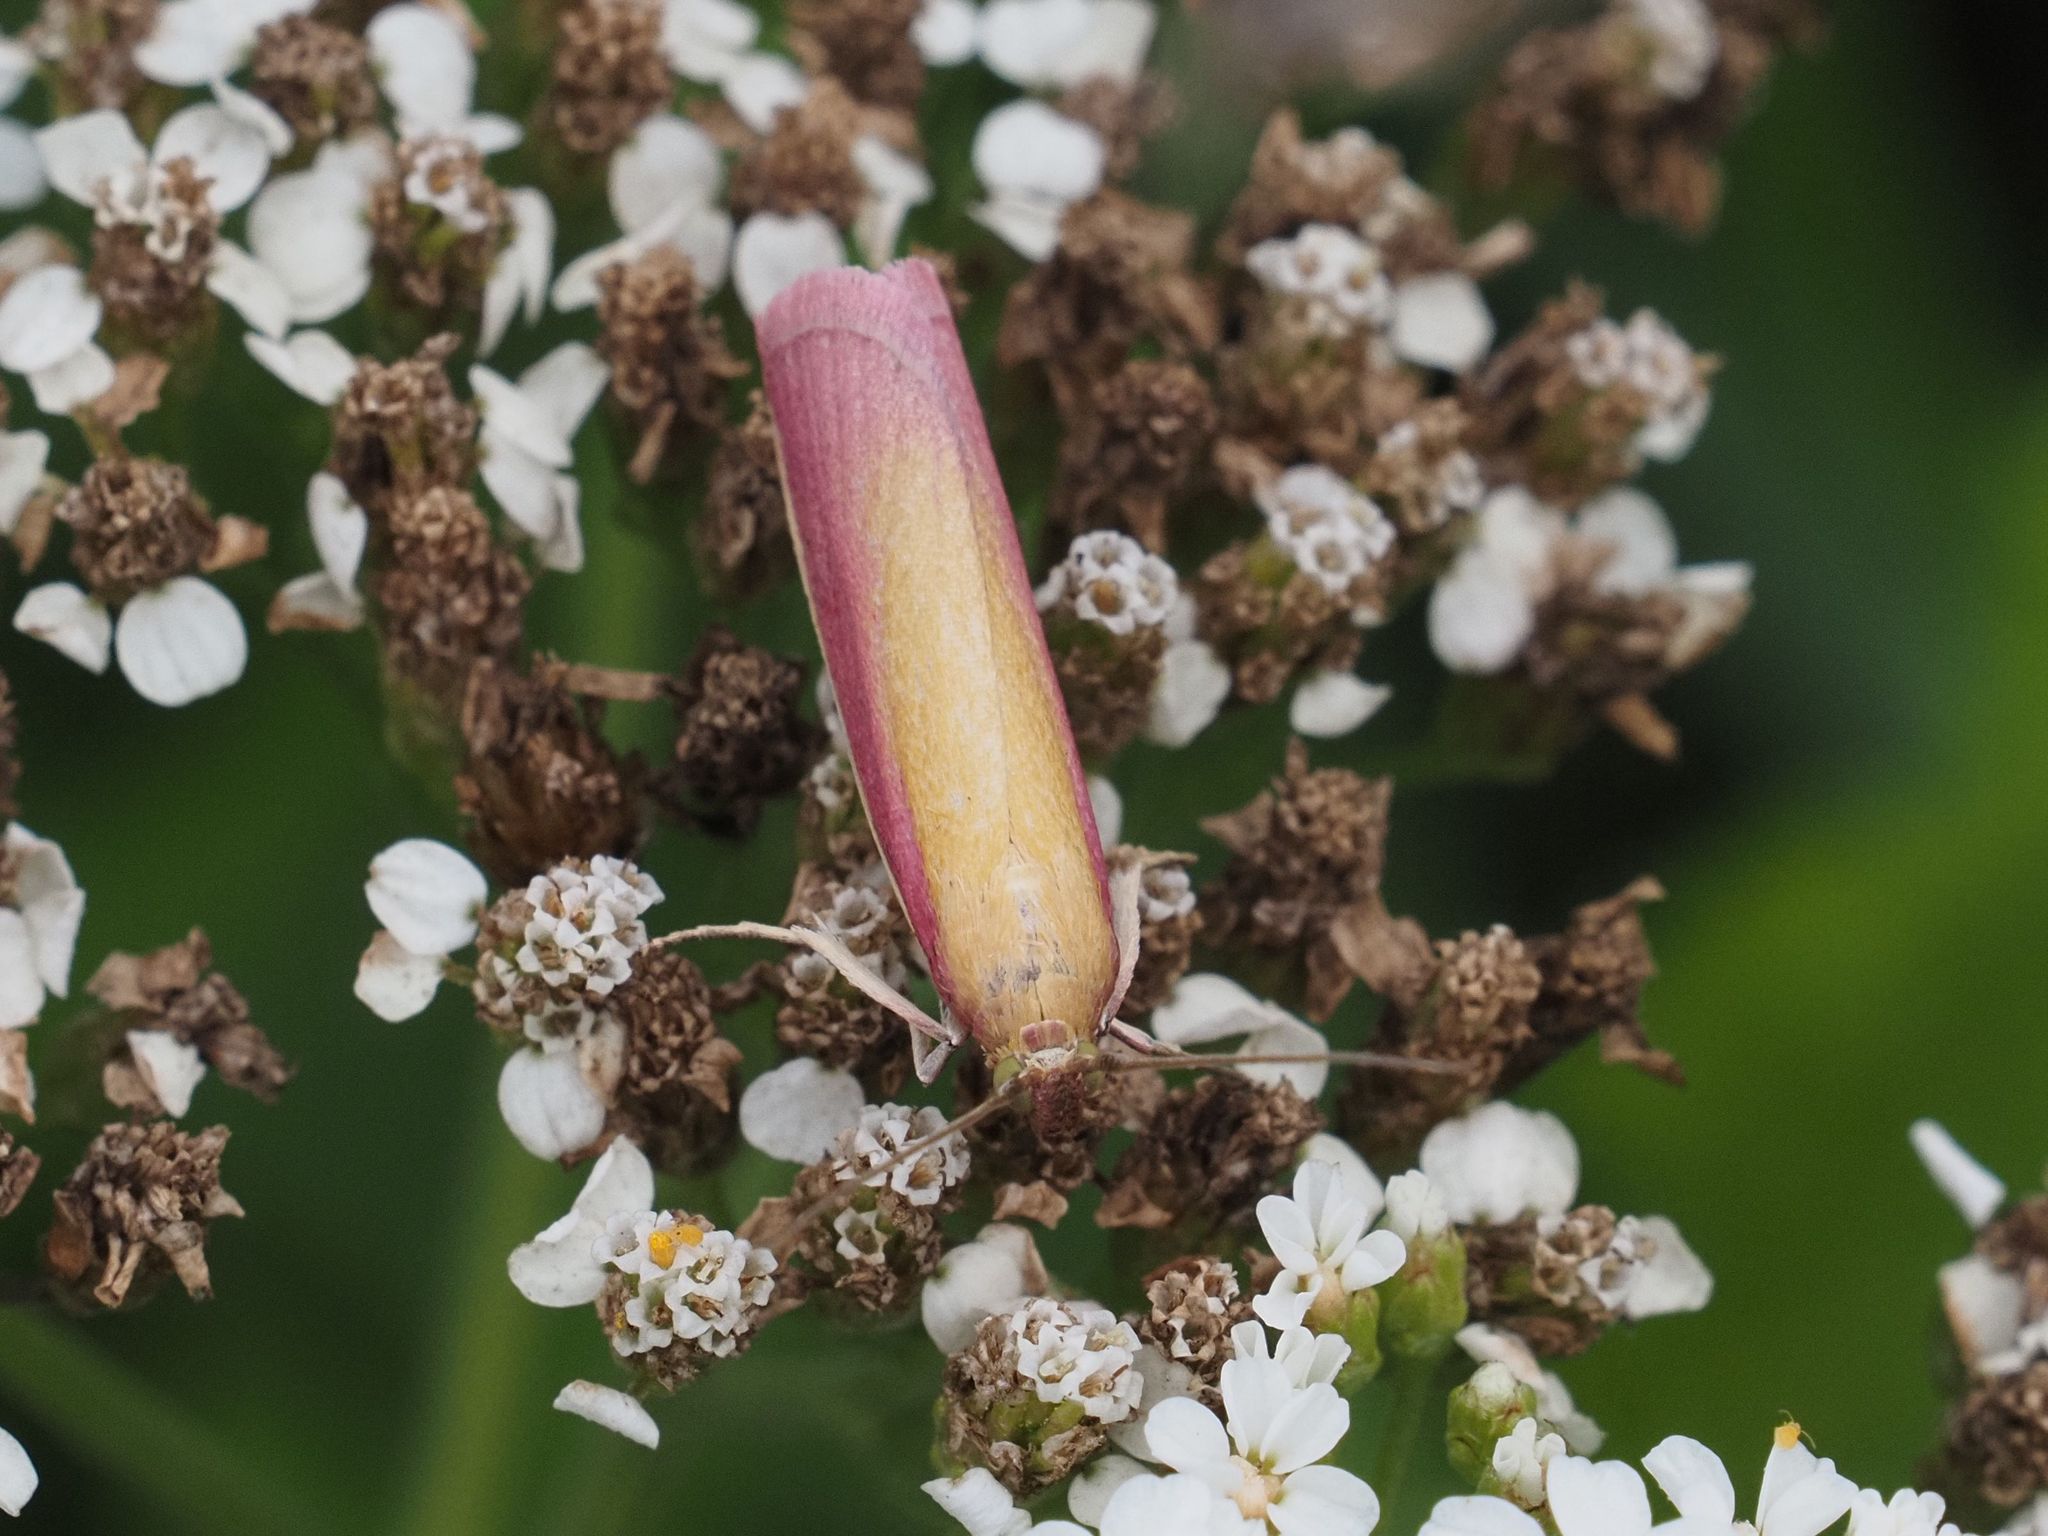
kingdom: Animalia
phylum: Arthropoda
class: Insecta
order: Lepidoptera
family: Pyralidae
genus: Oncocera
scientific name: Oncocera semirubella
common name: Rosy-striped knot-horn
